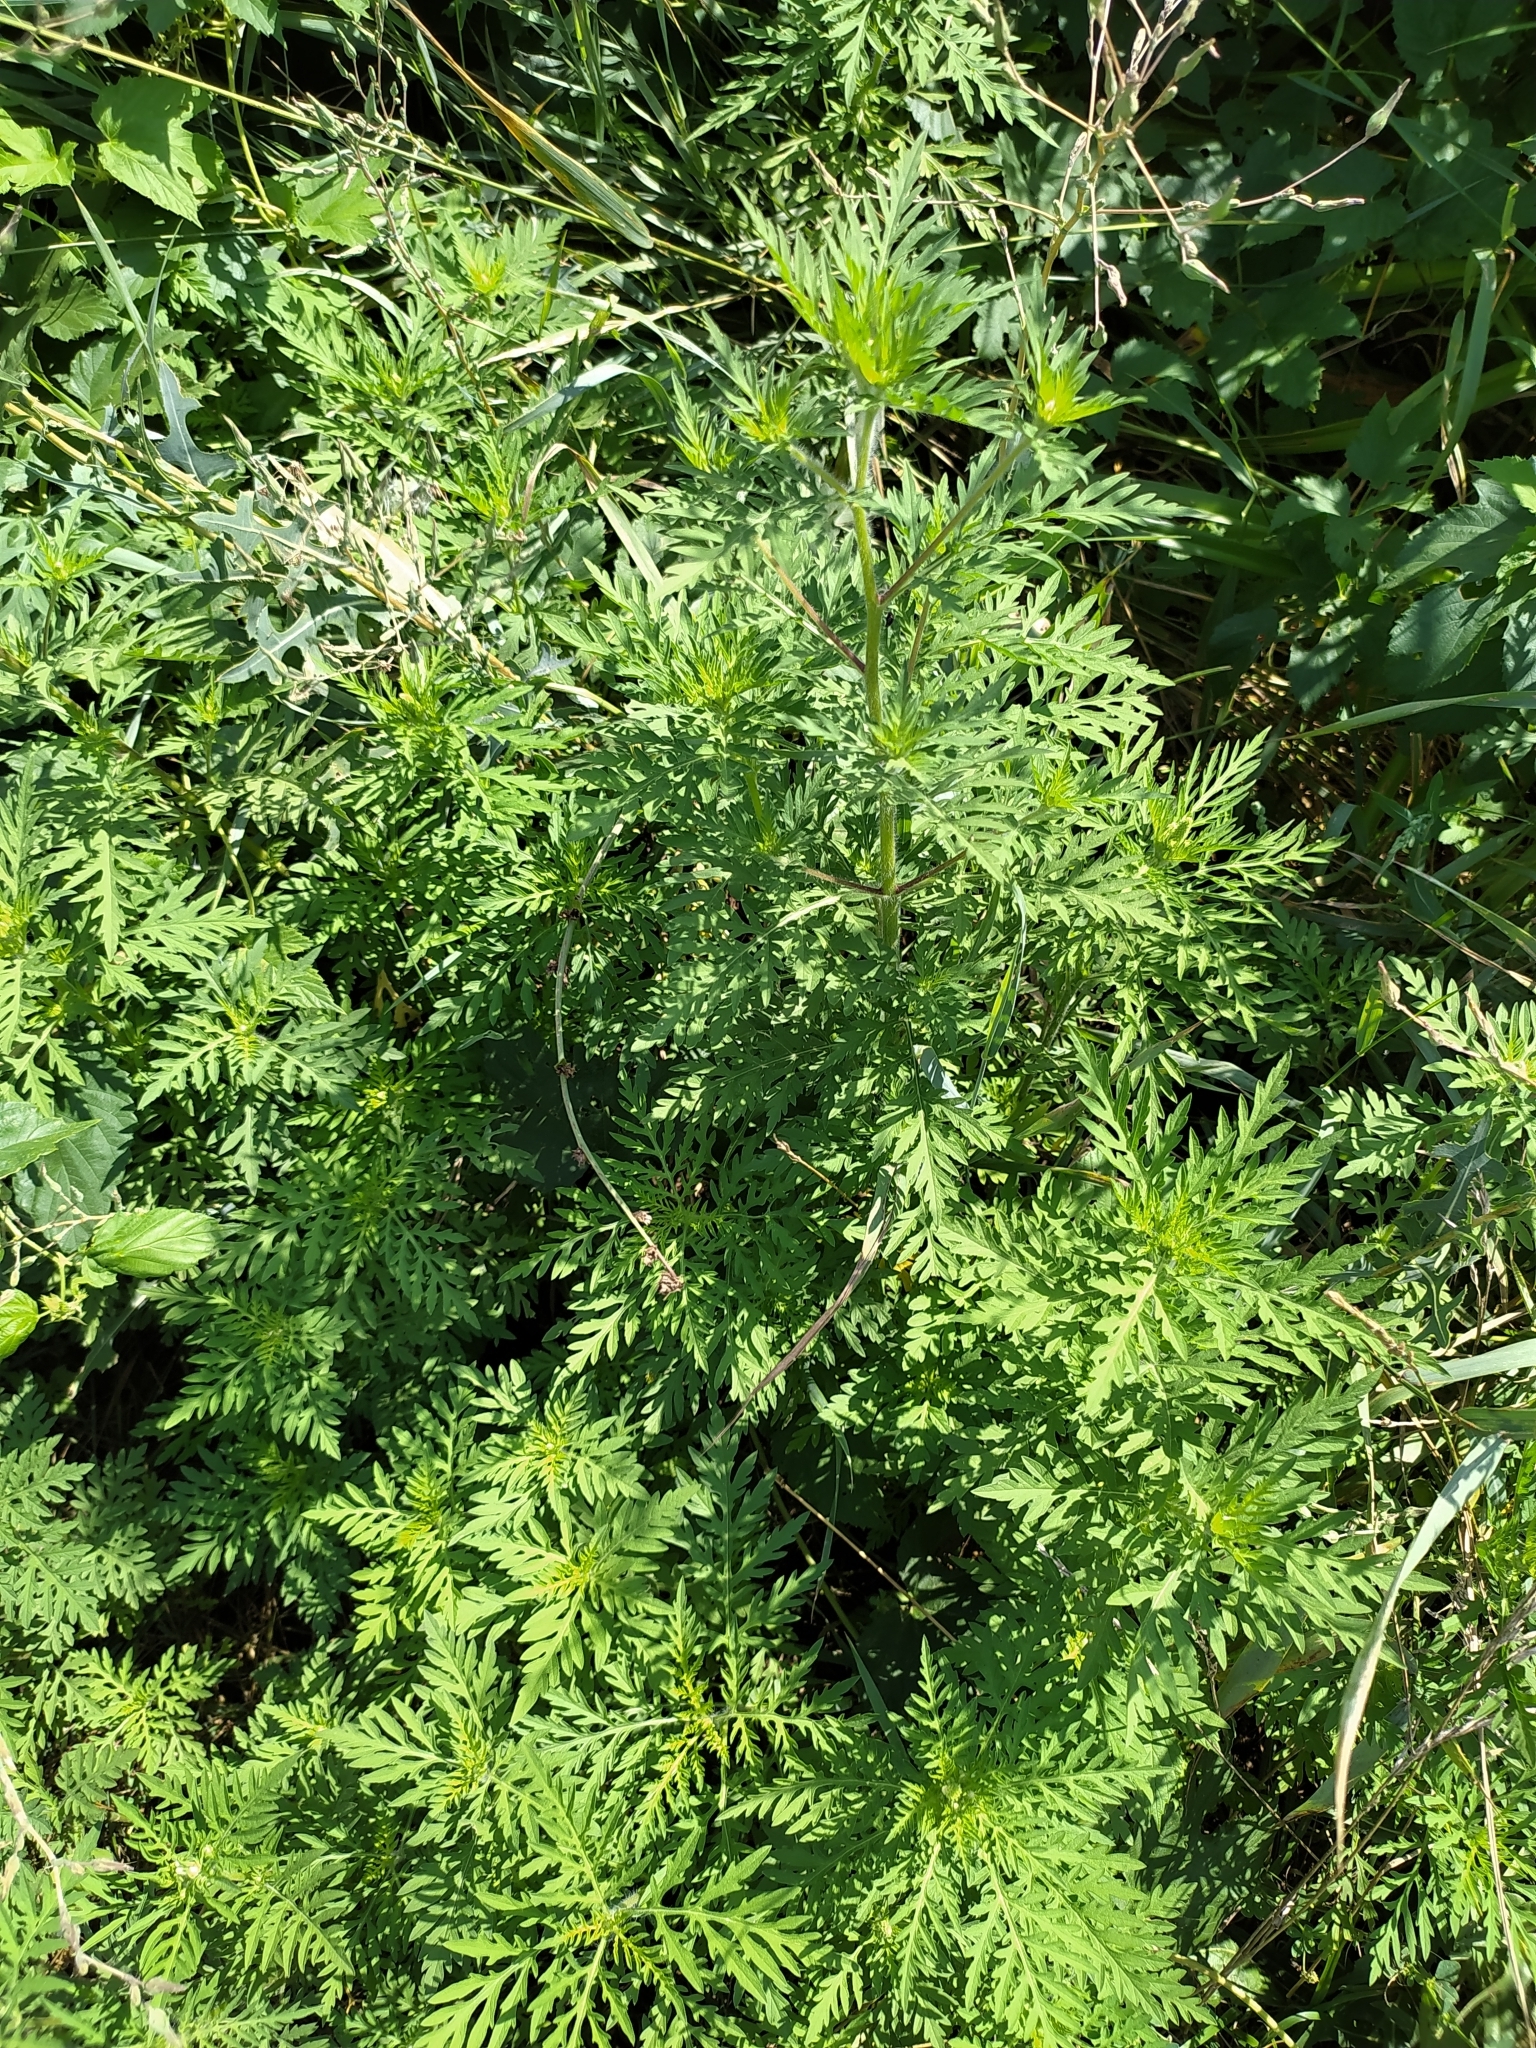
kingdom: Plantae
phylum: Tracheophyta
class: Magnoliopsida
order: Asterales
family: Asteraceae
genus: Ambrosia
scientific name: Ambrosia artemisiifolia
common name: Annual ragweed
